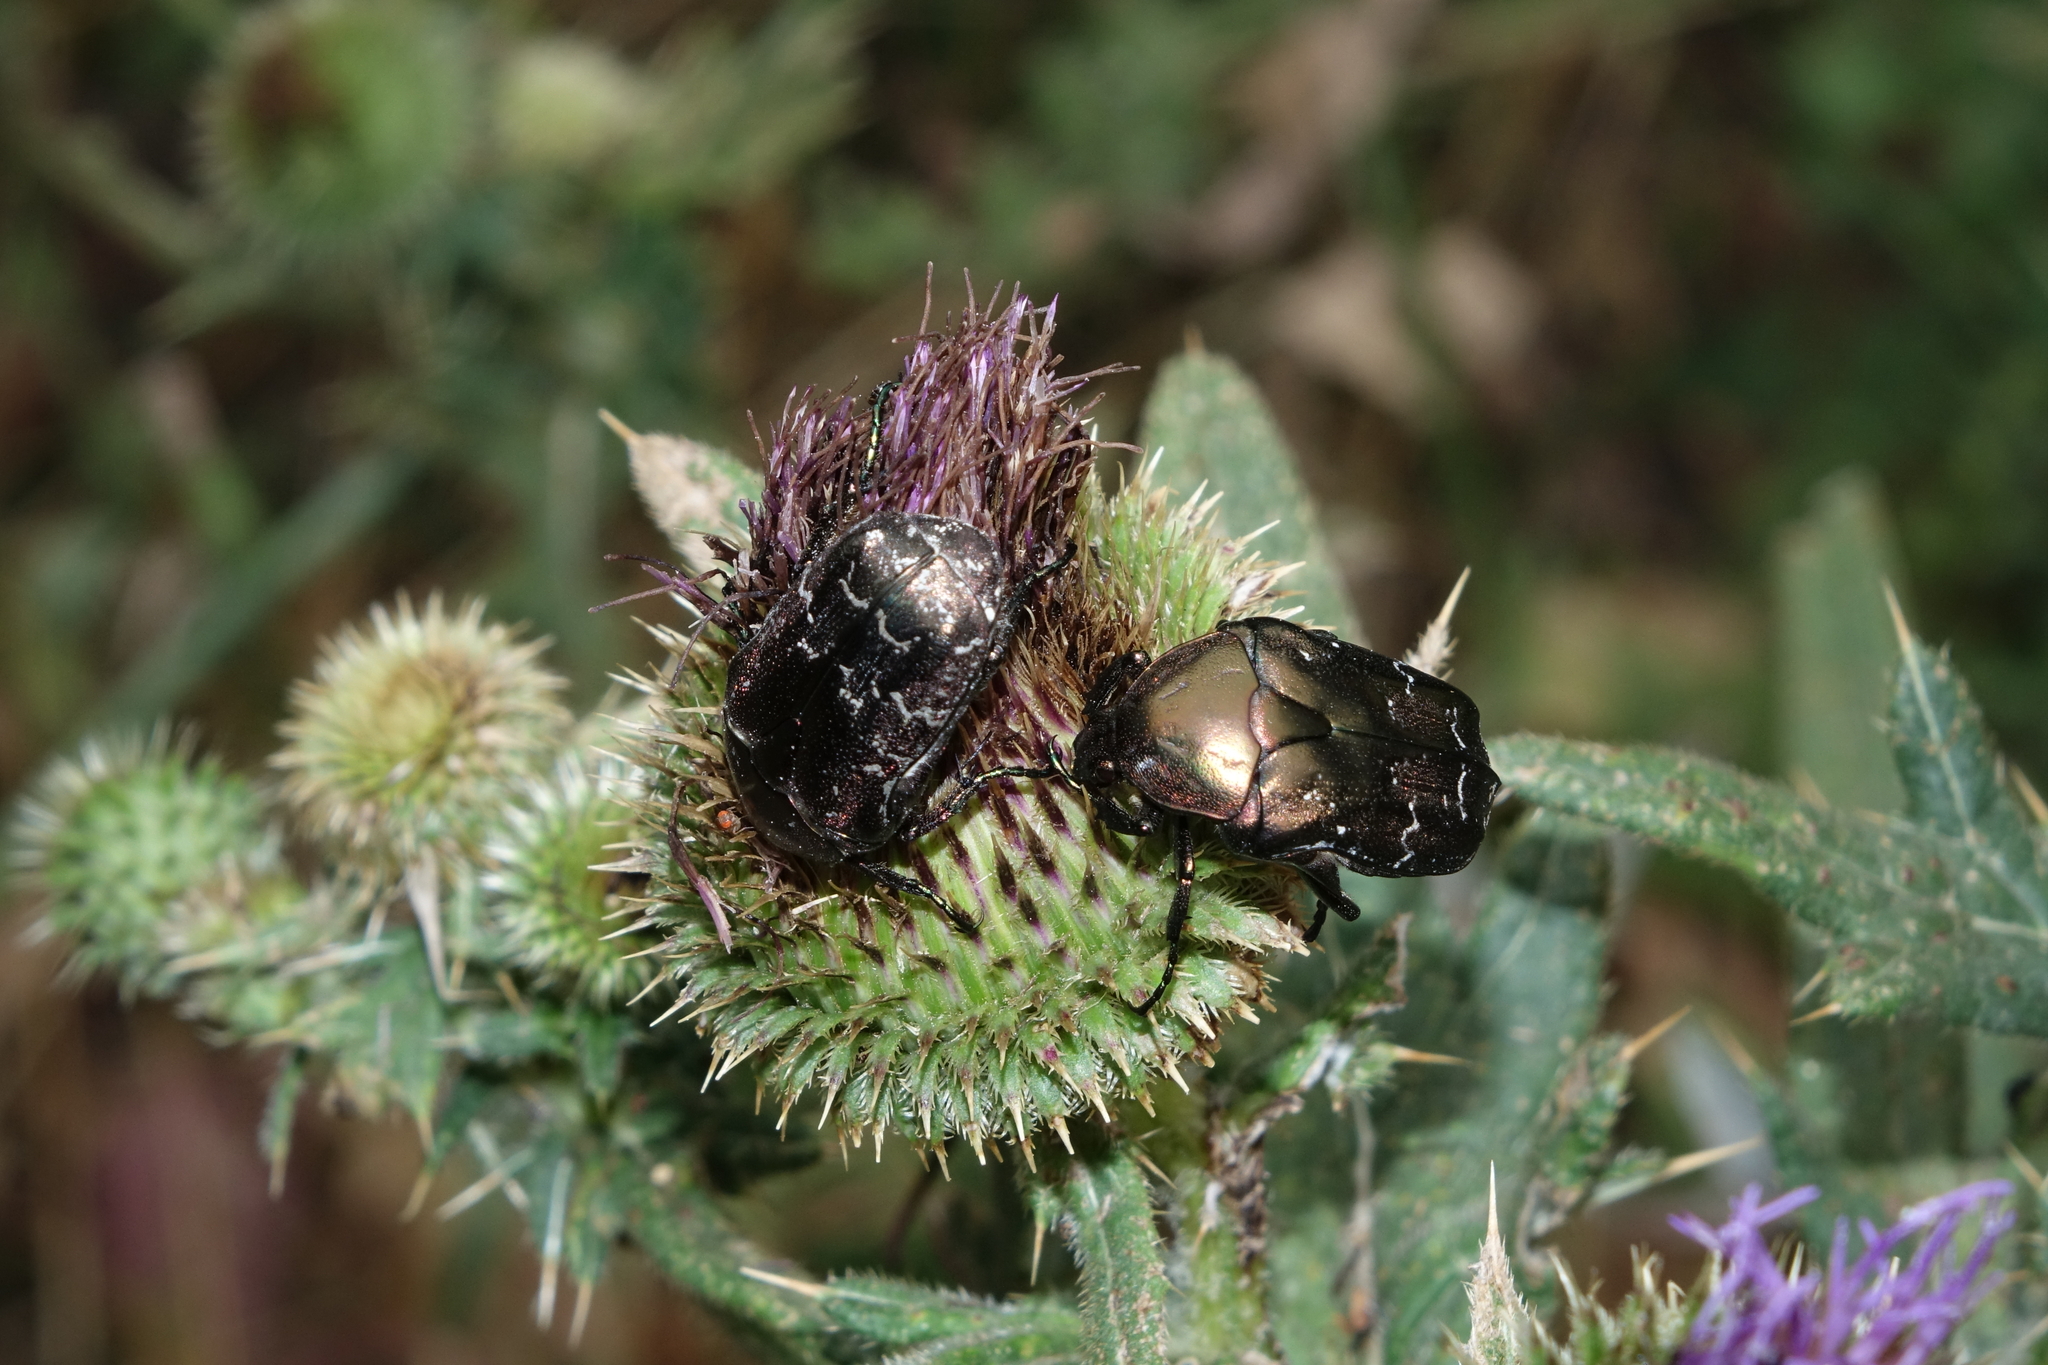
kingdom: Animalia
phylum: Arthropoda
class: Insecta
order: Coleoptera
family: Scarabaeidae
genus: Protaetia
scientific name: Protaetia cuprea
